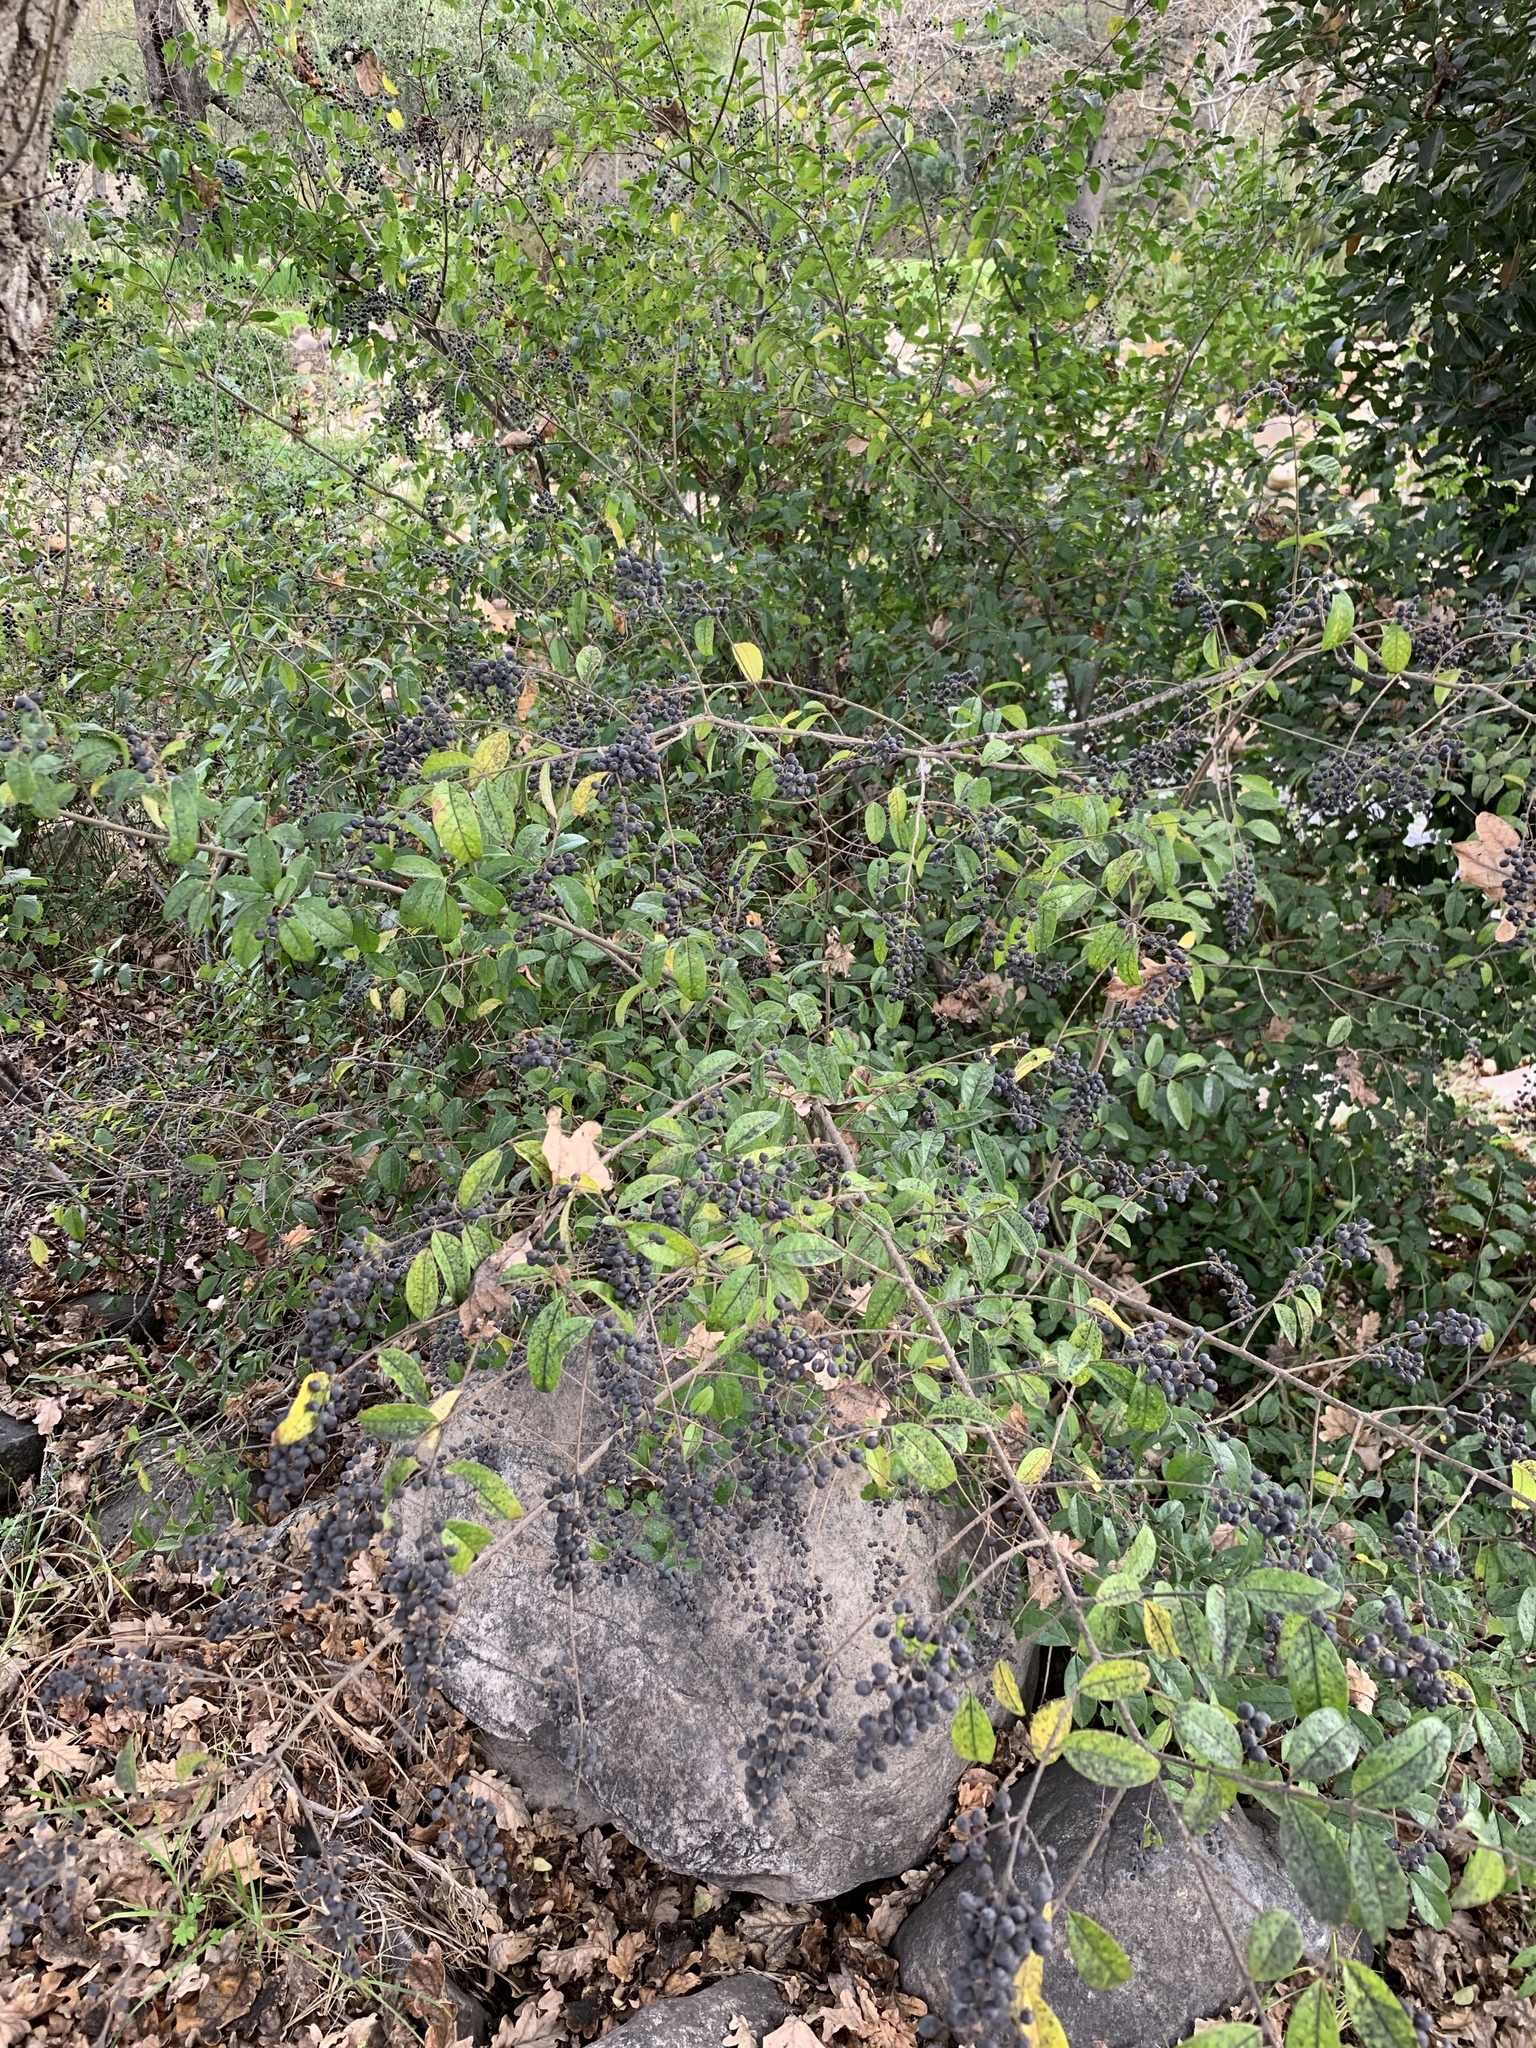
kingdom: Plantae
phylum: Tracheophyta
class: Magnoliopsida
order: Lamiales
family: Oleaceae
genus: Ligustrum
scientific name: Ligustrum sinense
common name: Chinese privet
